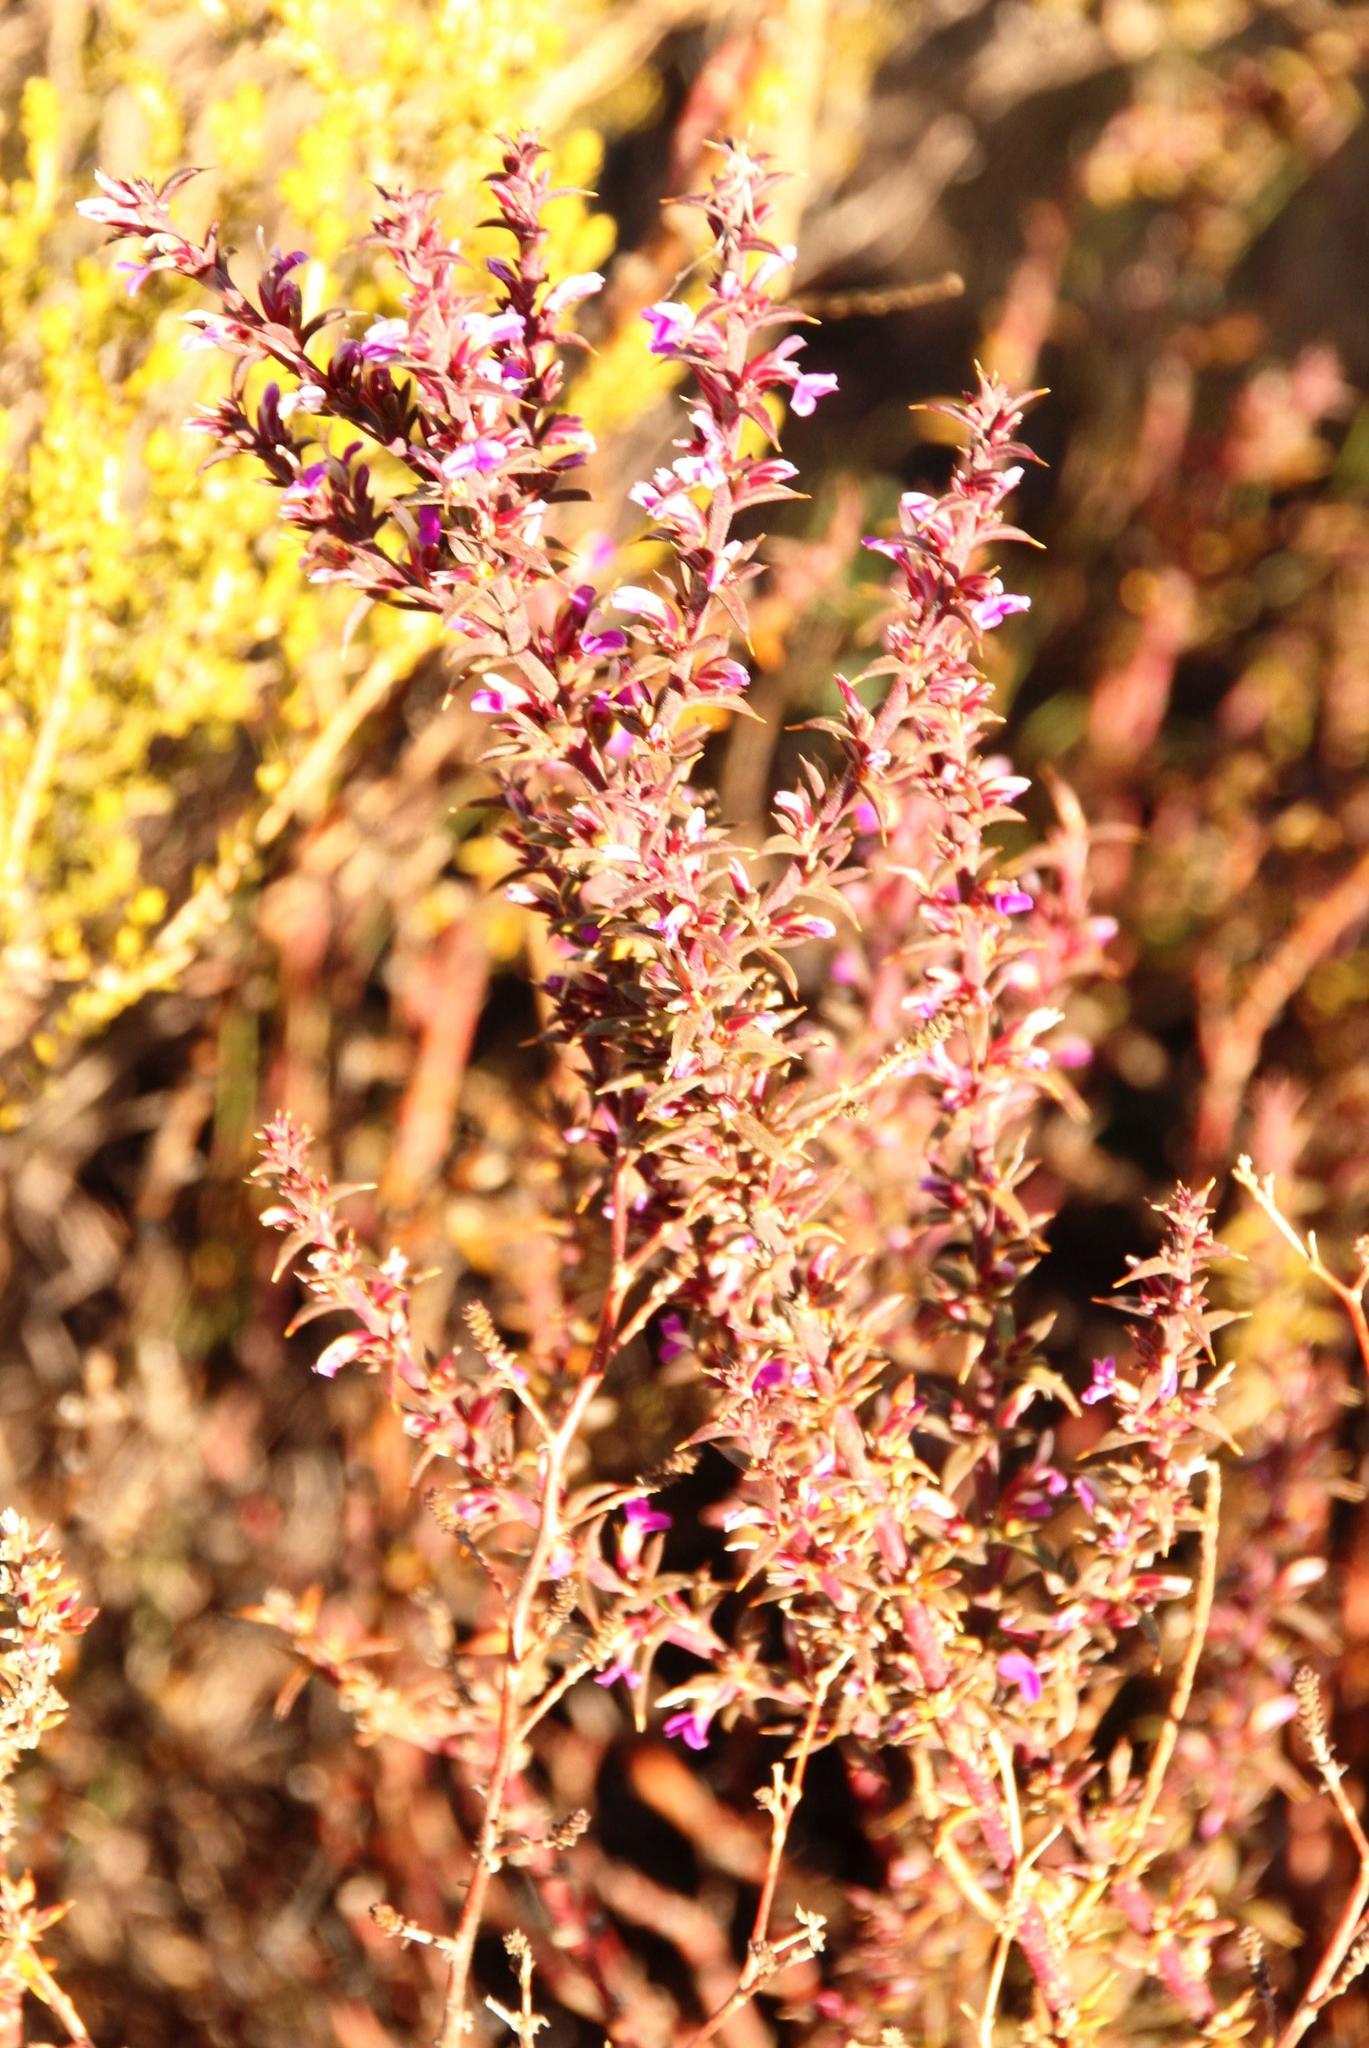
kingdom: Plantae
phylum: Tracheophyta
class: Magnoliopsida
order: Fabales
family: Polygalaceae
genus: Muraltia
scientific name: Muraltia heisteria
